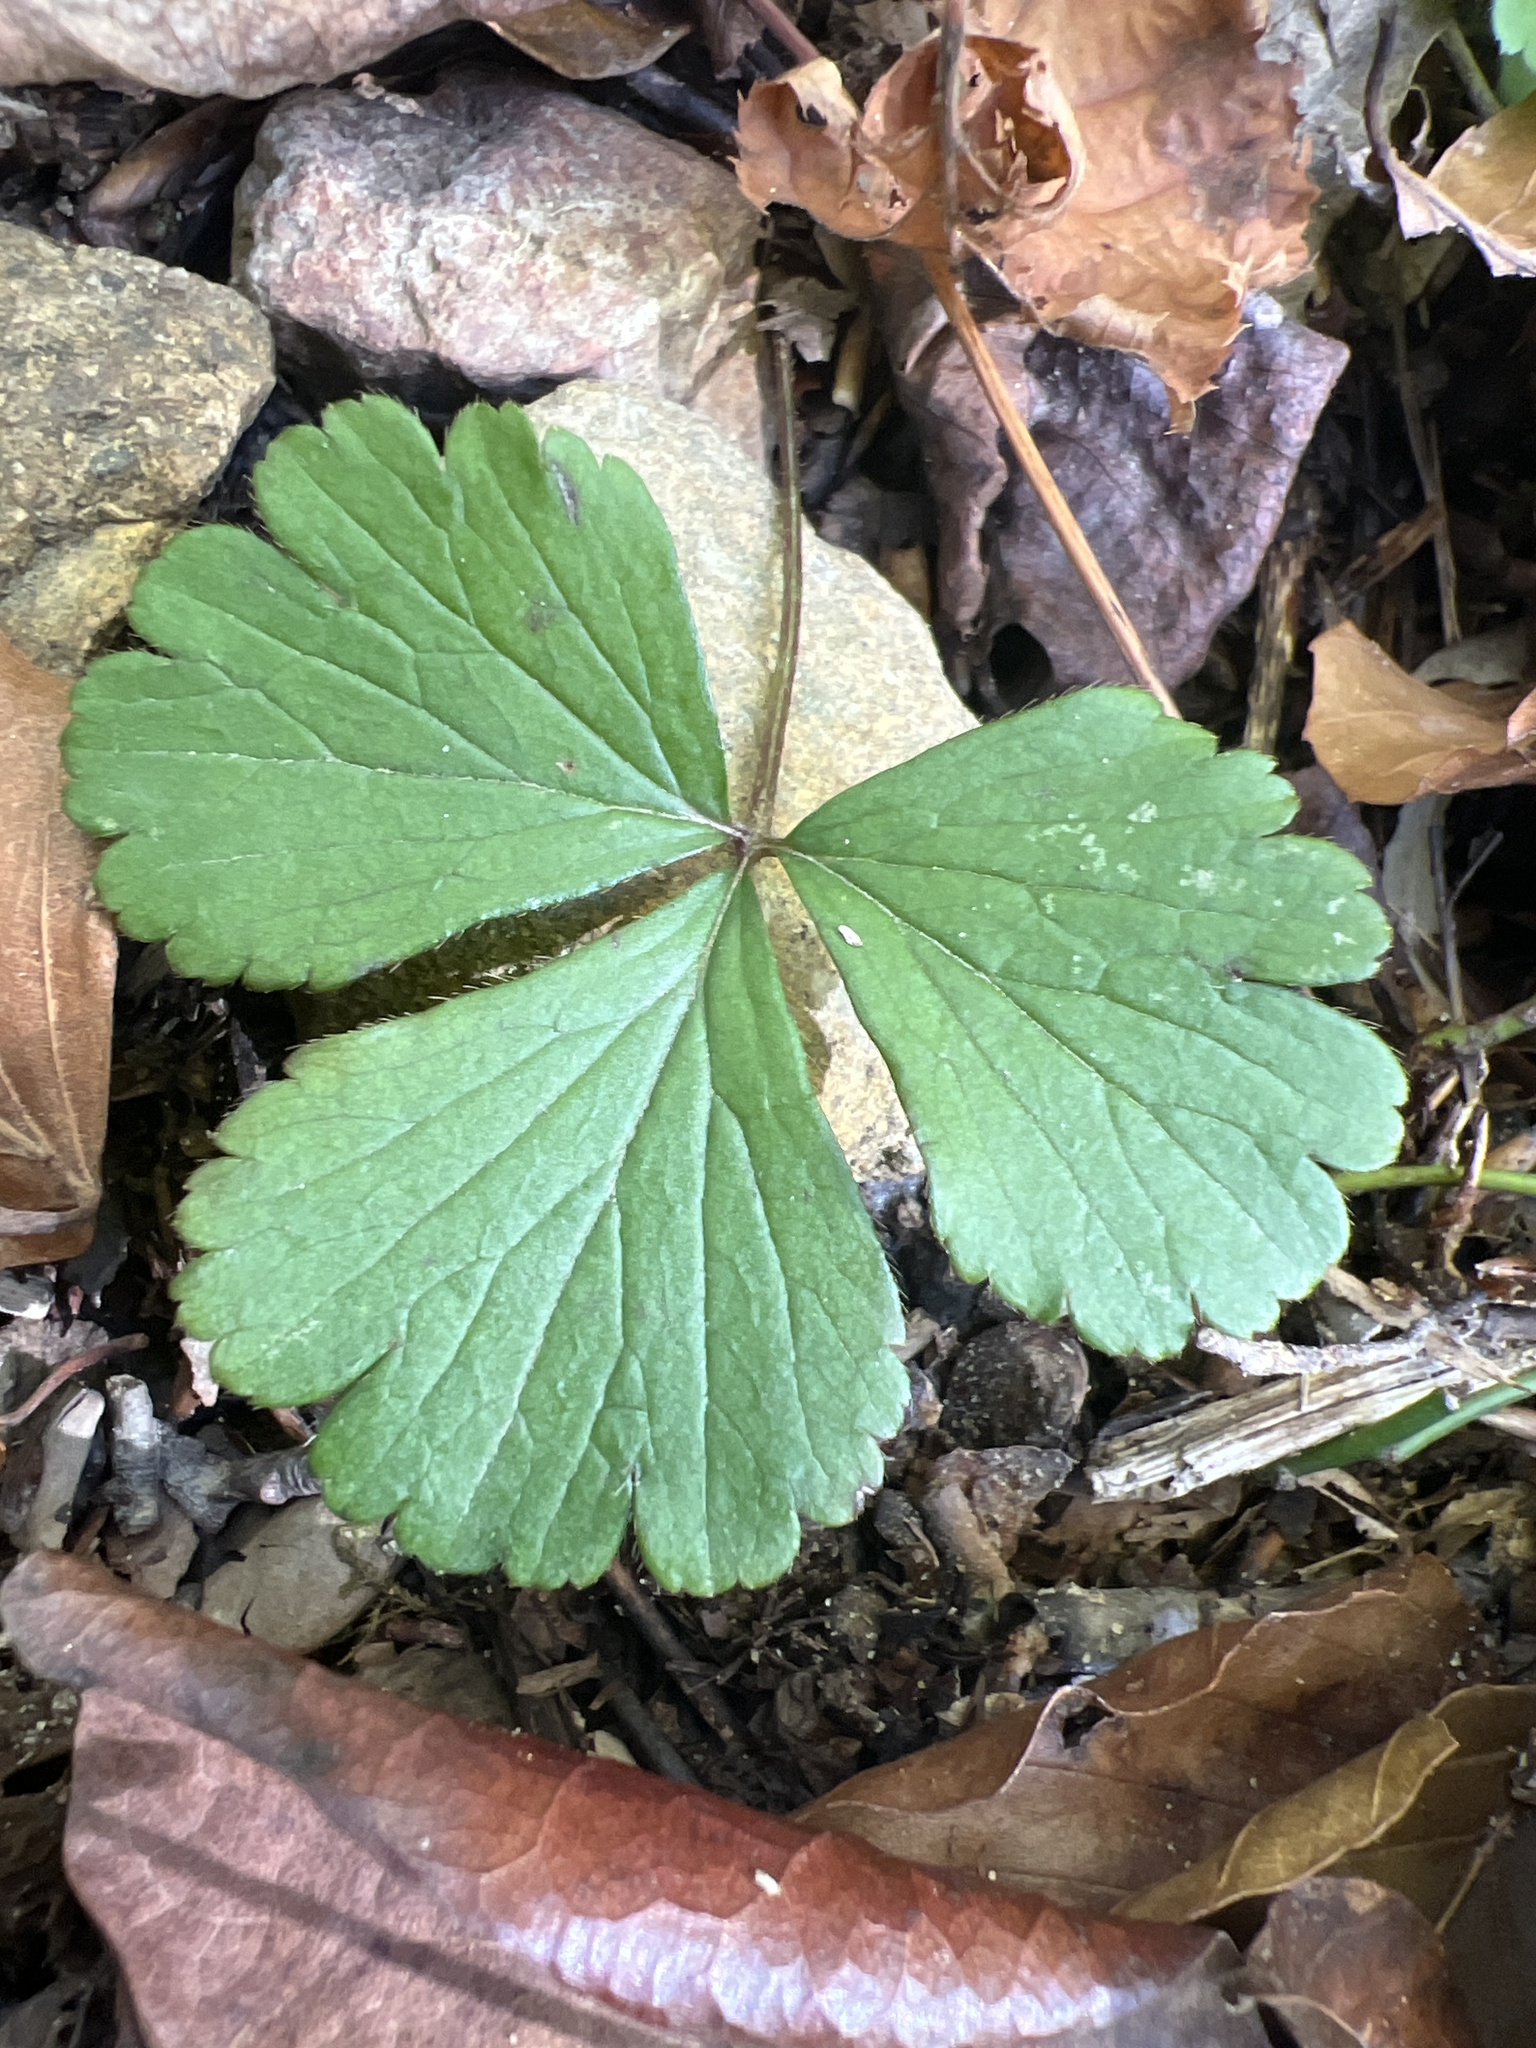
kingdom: Plantae
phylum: Tracheophyta
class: Magnoliopsida
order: Rosales
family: Rosaceae
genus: Geum
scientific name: Geum donianum
